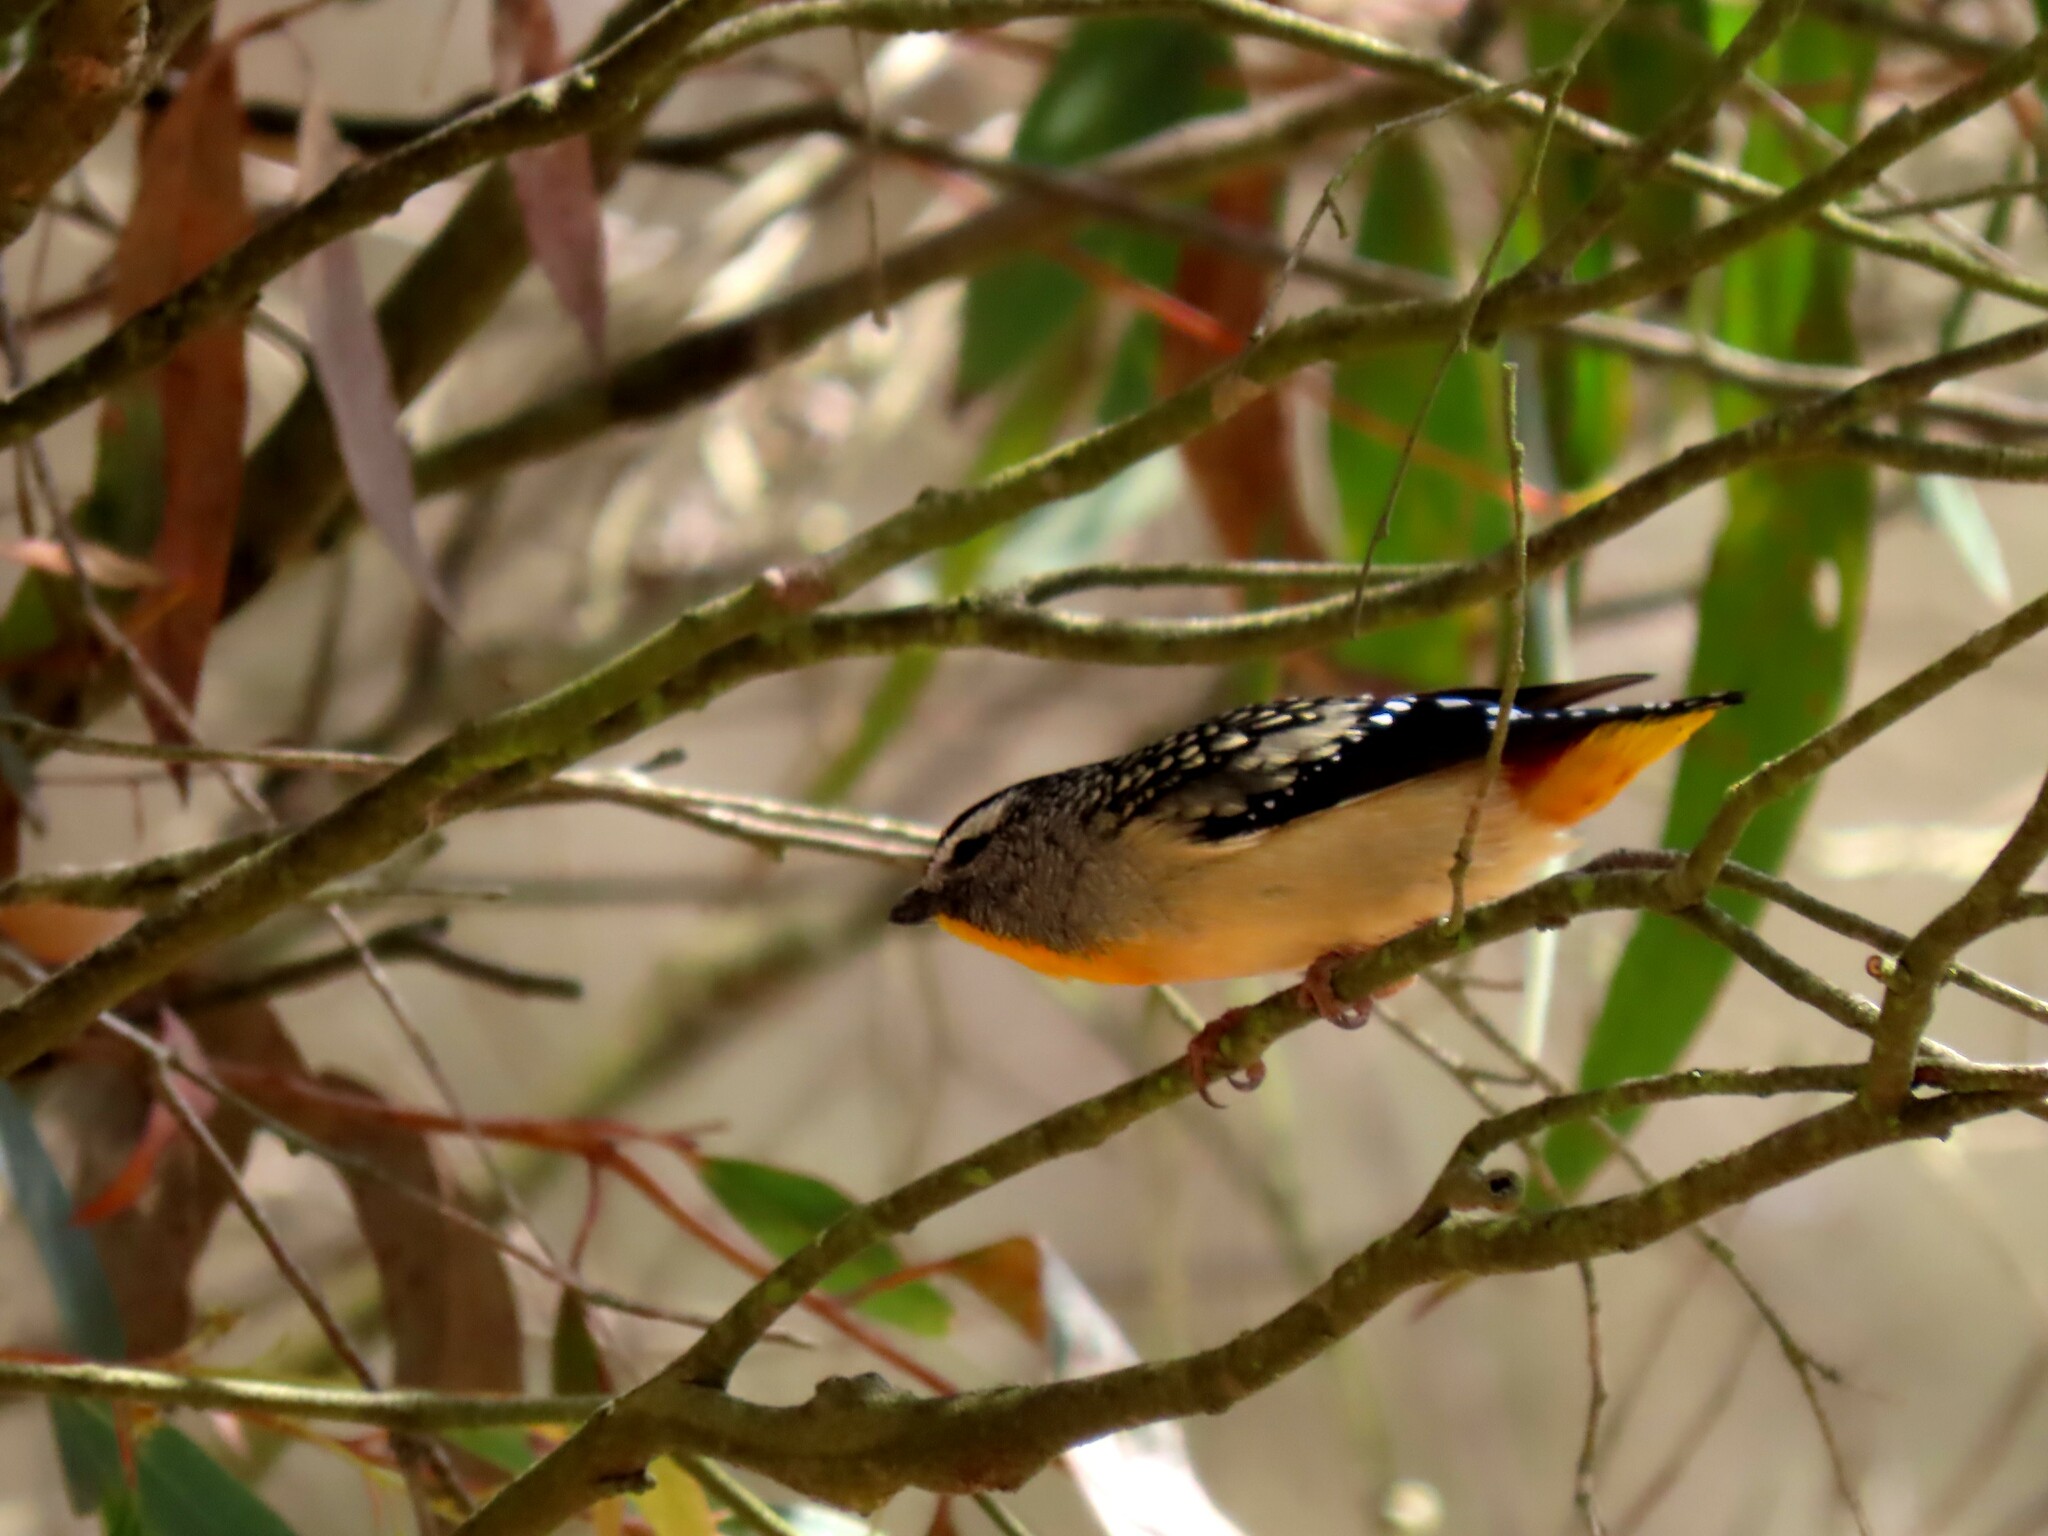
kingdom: Animalia
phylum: Chordata
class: Aves
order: Passeriformes
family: Pardalotidae
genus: Pardalotus
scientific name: Pardalotus punctatus
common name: Spotted pardalote
